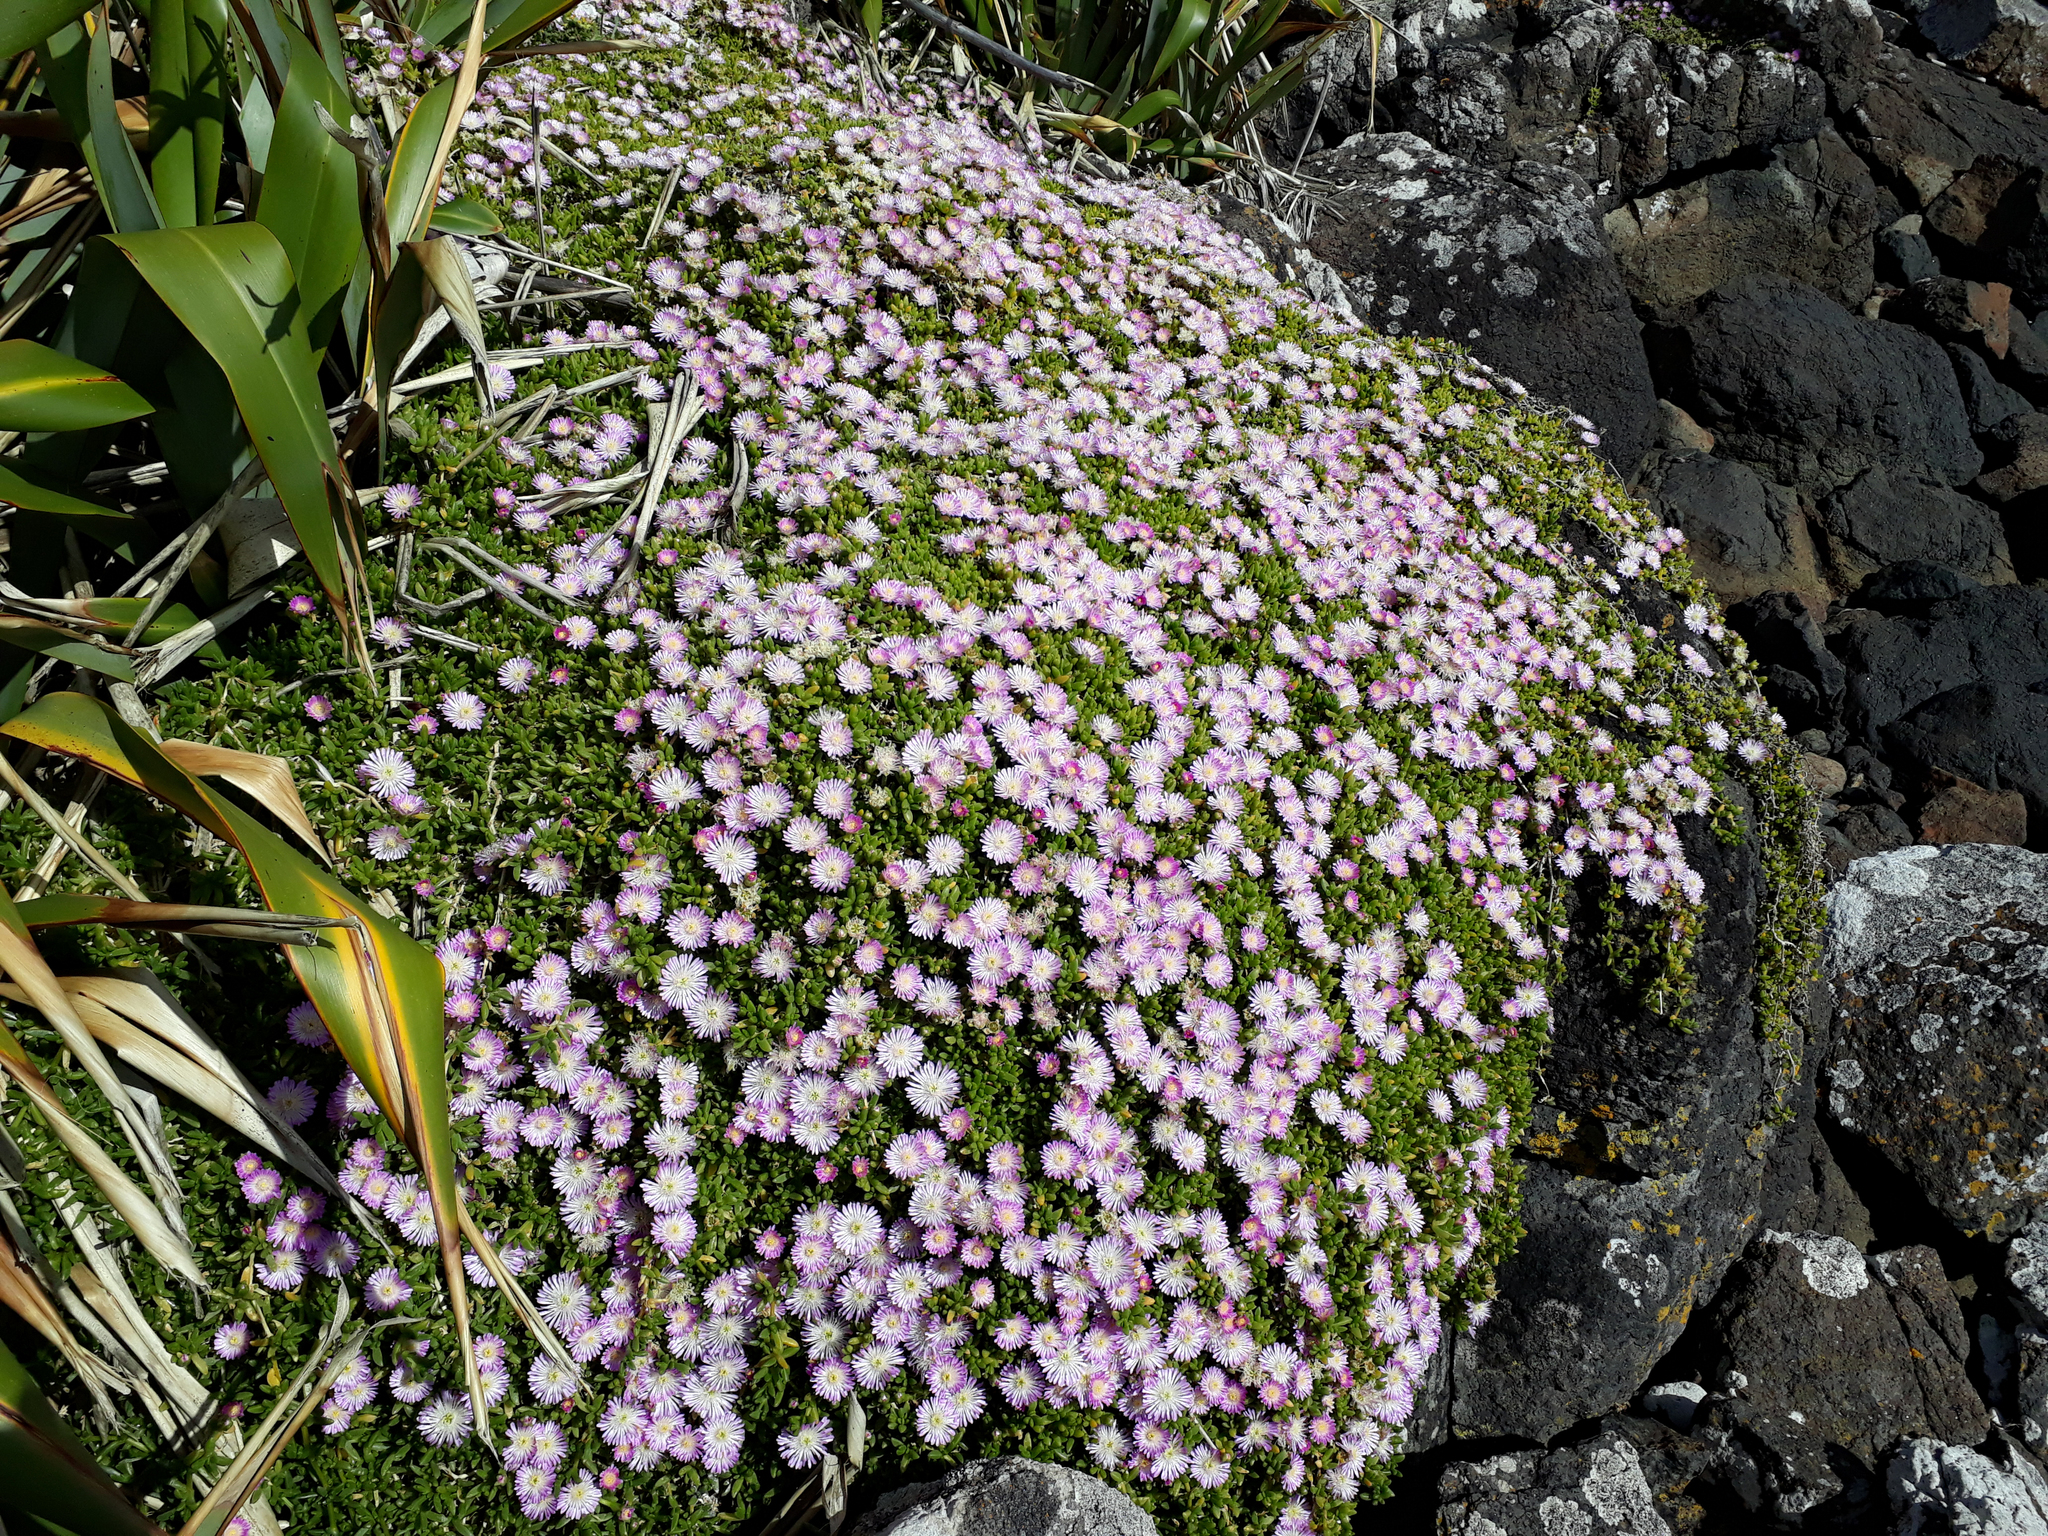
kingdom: Plantae
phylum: Tracheophyta
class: Magnoliopsida
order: Caryophyllales
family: Aizoaceae
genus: Disphyma
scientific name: Disphyma papillatum
